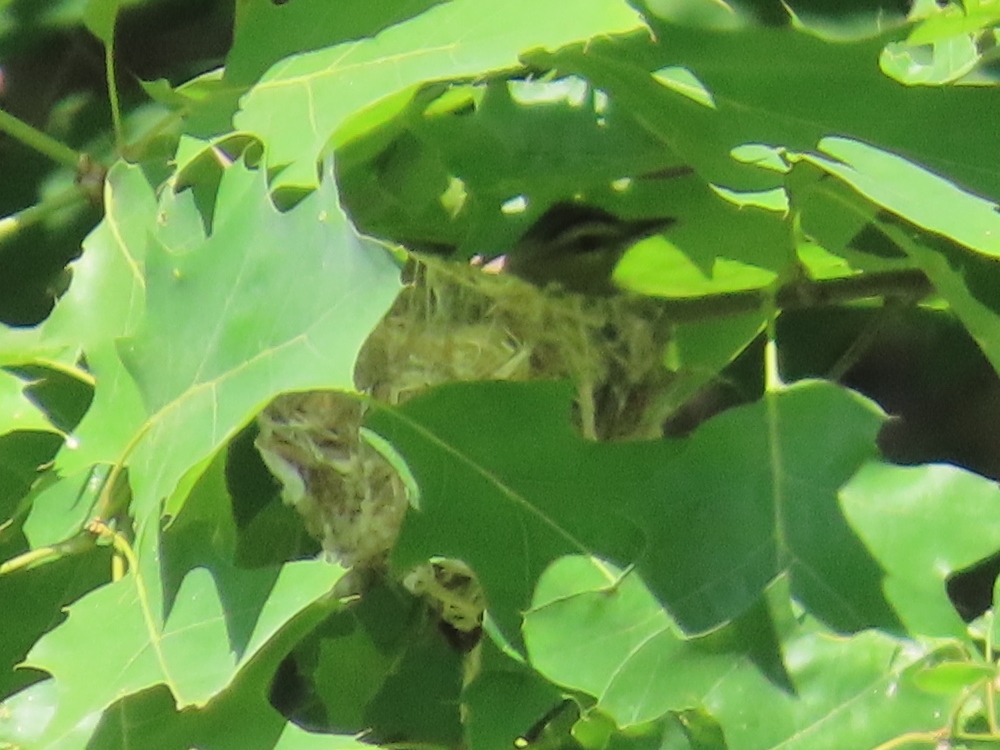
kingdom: Animalia
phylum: Chordata
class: Aves
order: Passeriformes
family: Vireonidae
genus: Vireo
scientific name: Vireo olivaceus
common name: Red-eyed vireo
